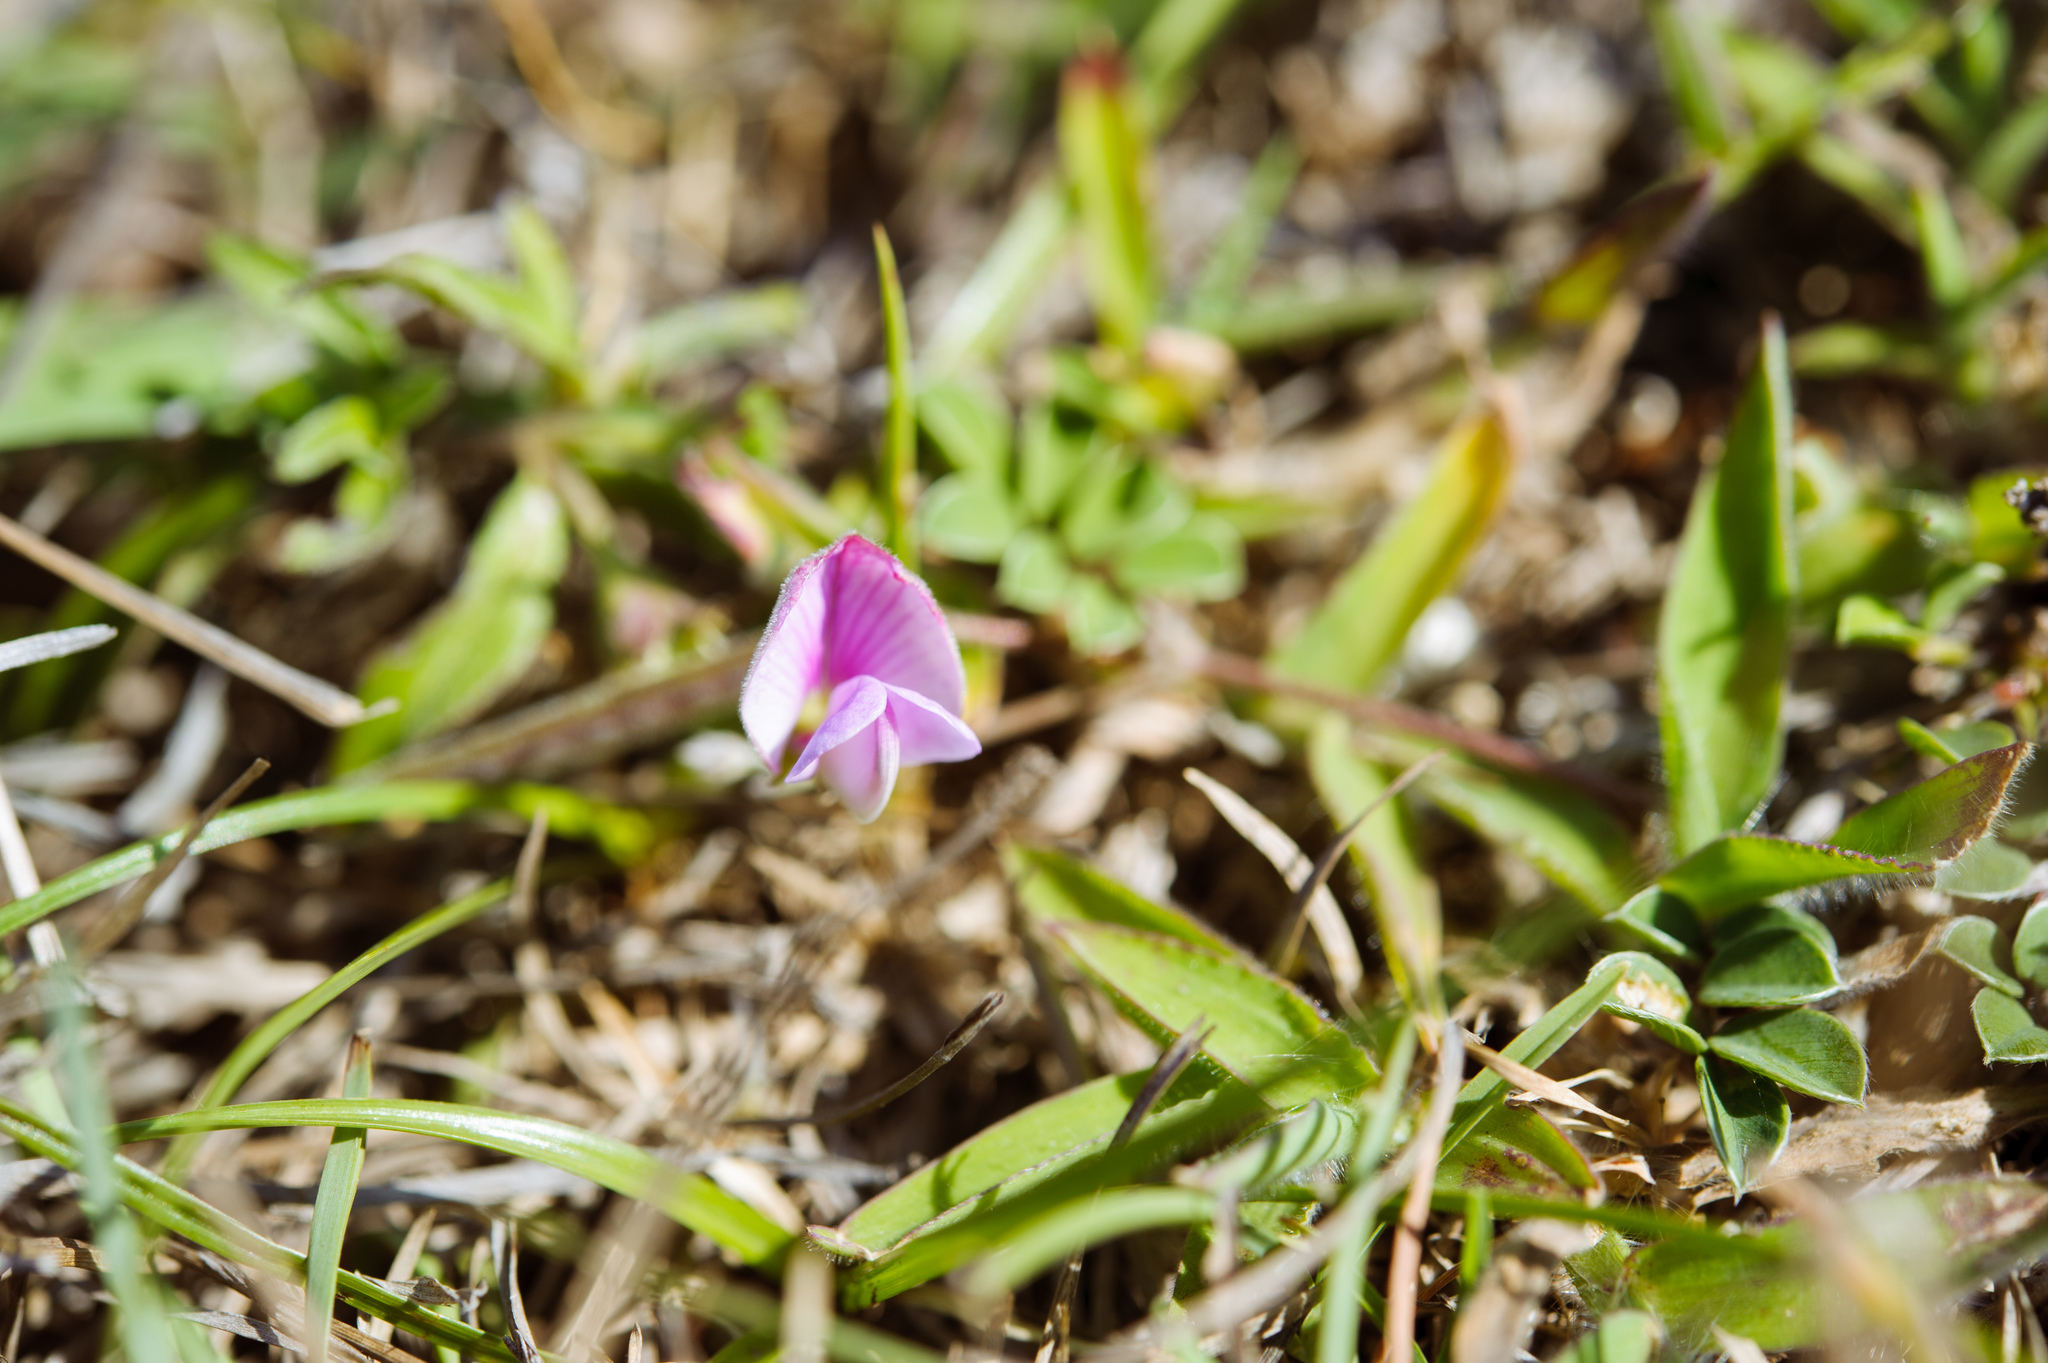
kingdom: Plantae
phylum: Tracheophyta
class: Magnoliopsida
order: Fabales
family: Fabaceae
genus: Tephrosia
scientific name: Tephrosia obovata
